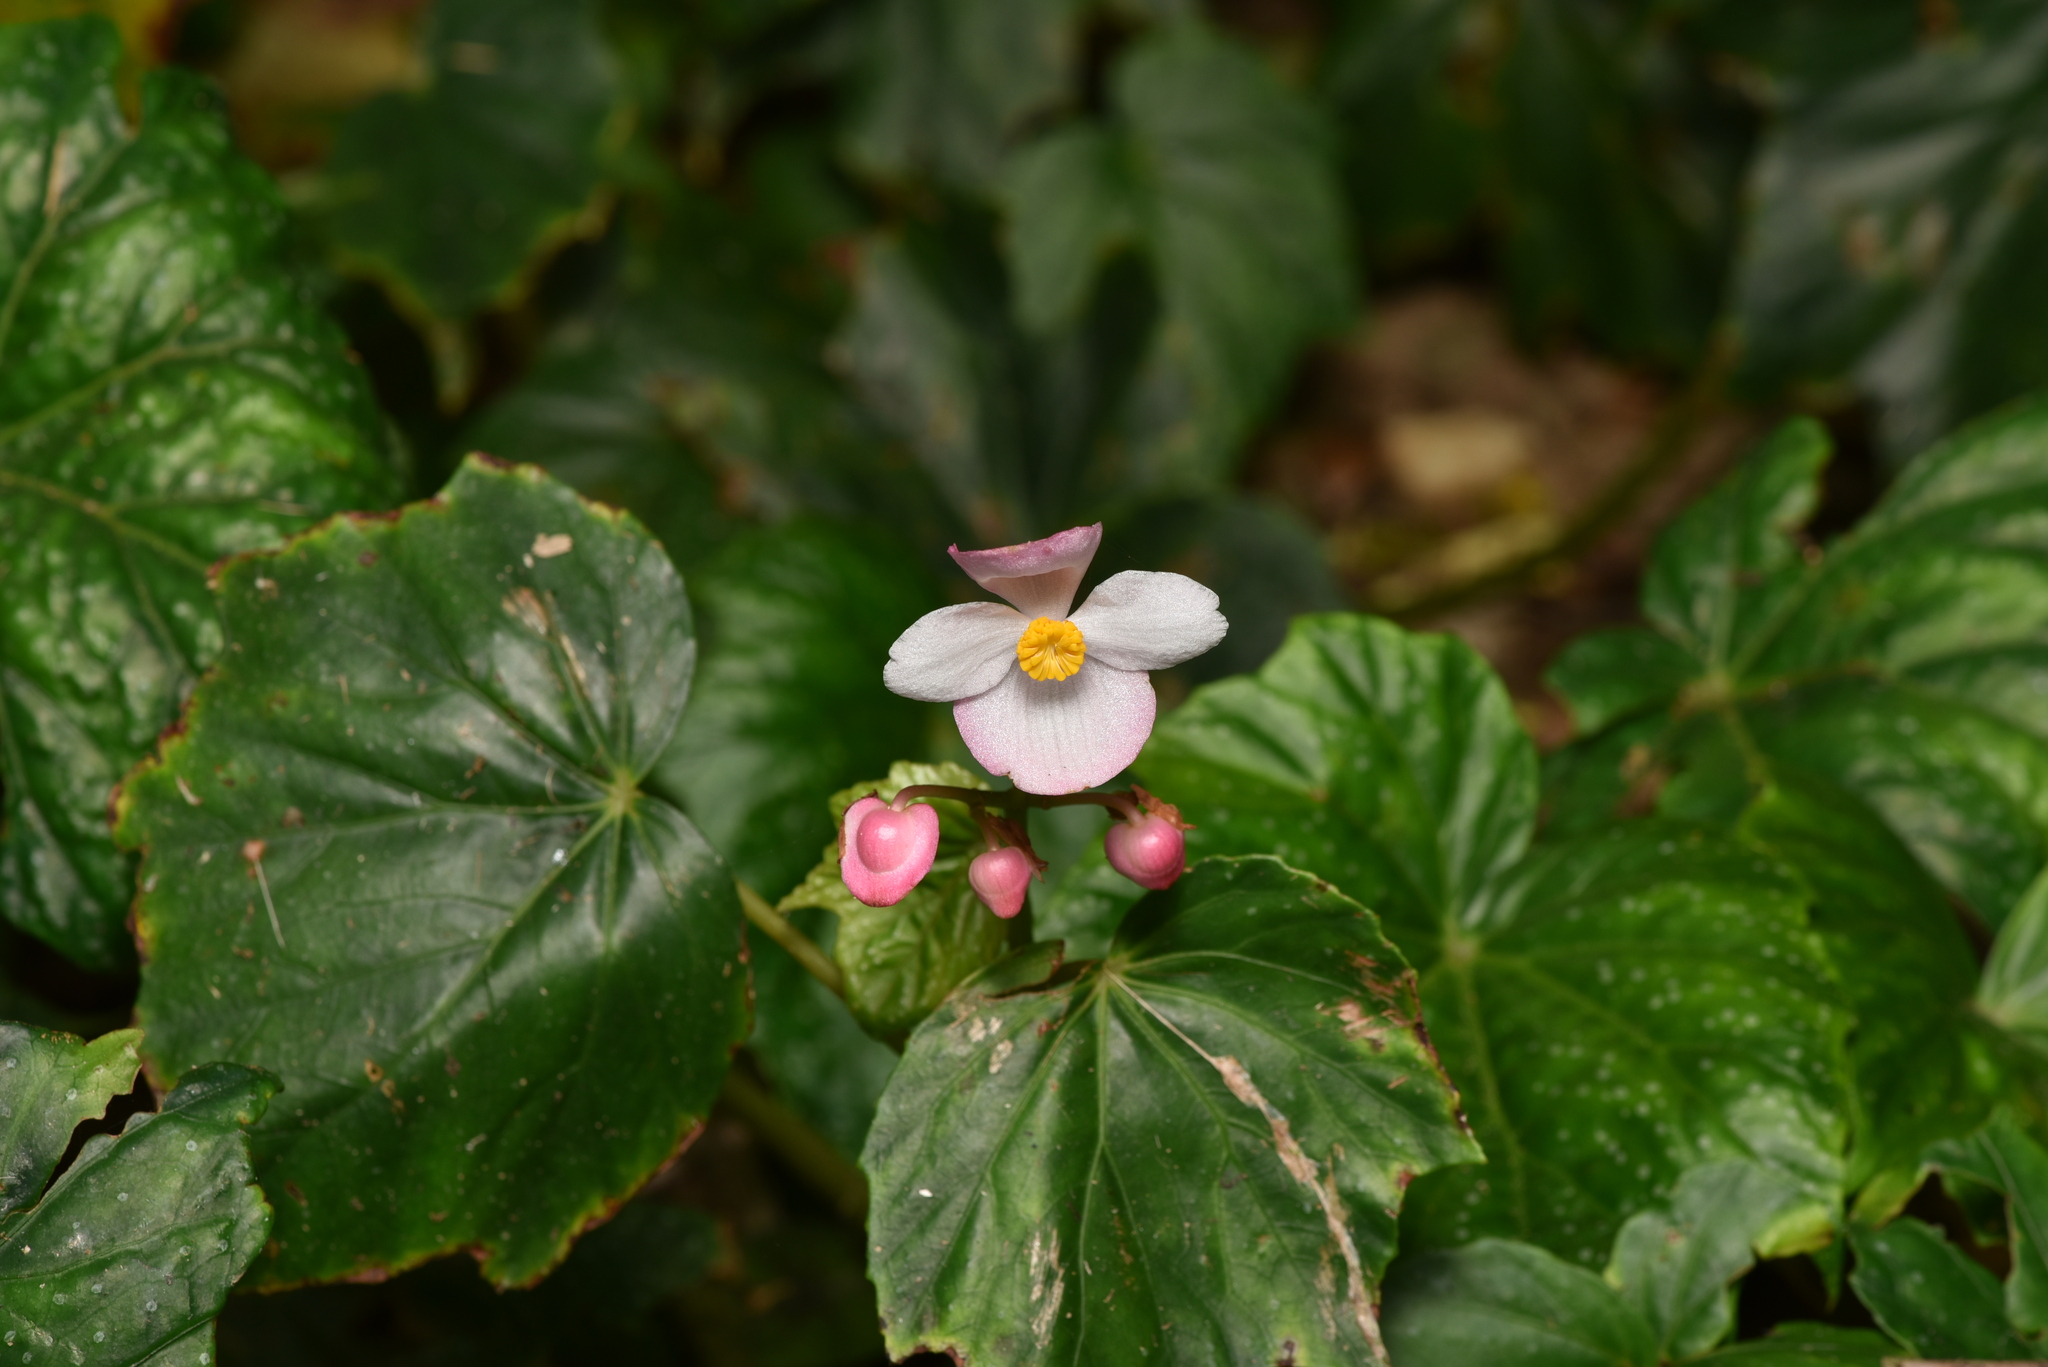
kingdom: Plantae
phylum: Tracheophyta
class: Magnoliopsida
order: Cucurbitales
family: Begoniaceae
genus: Begonia
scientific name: Begonia formosana
